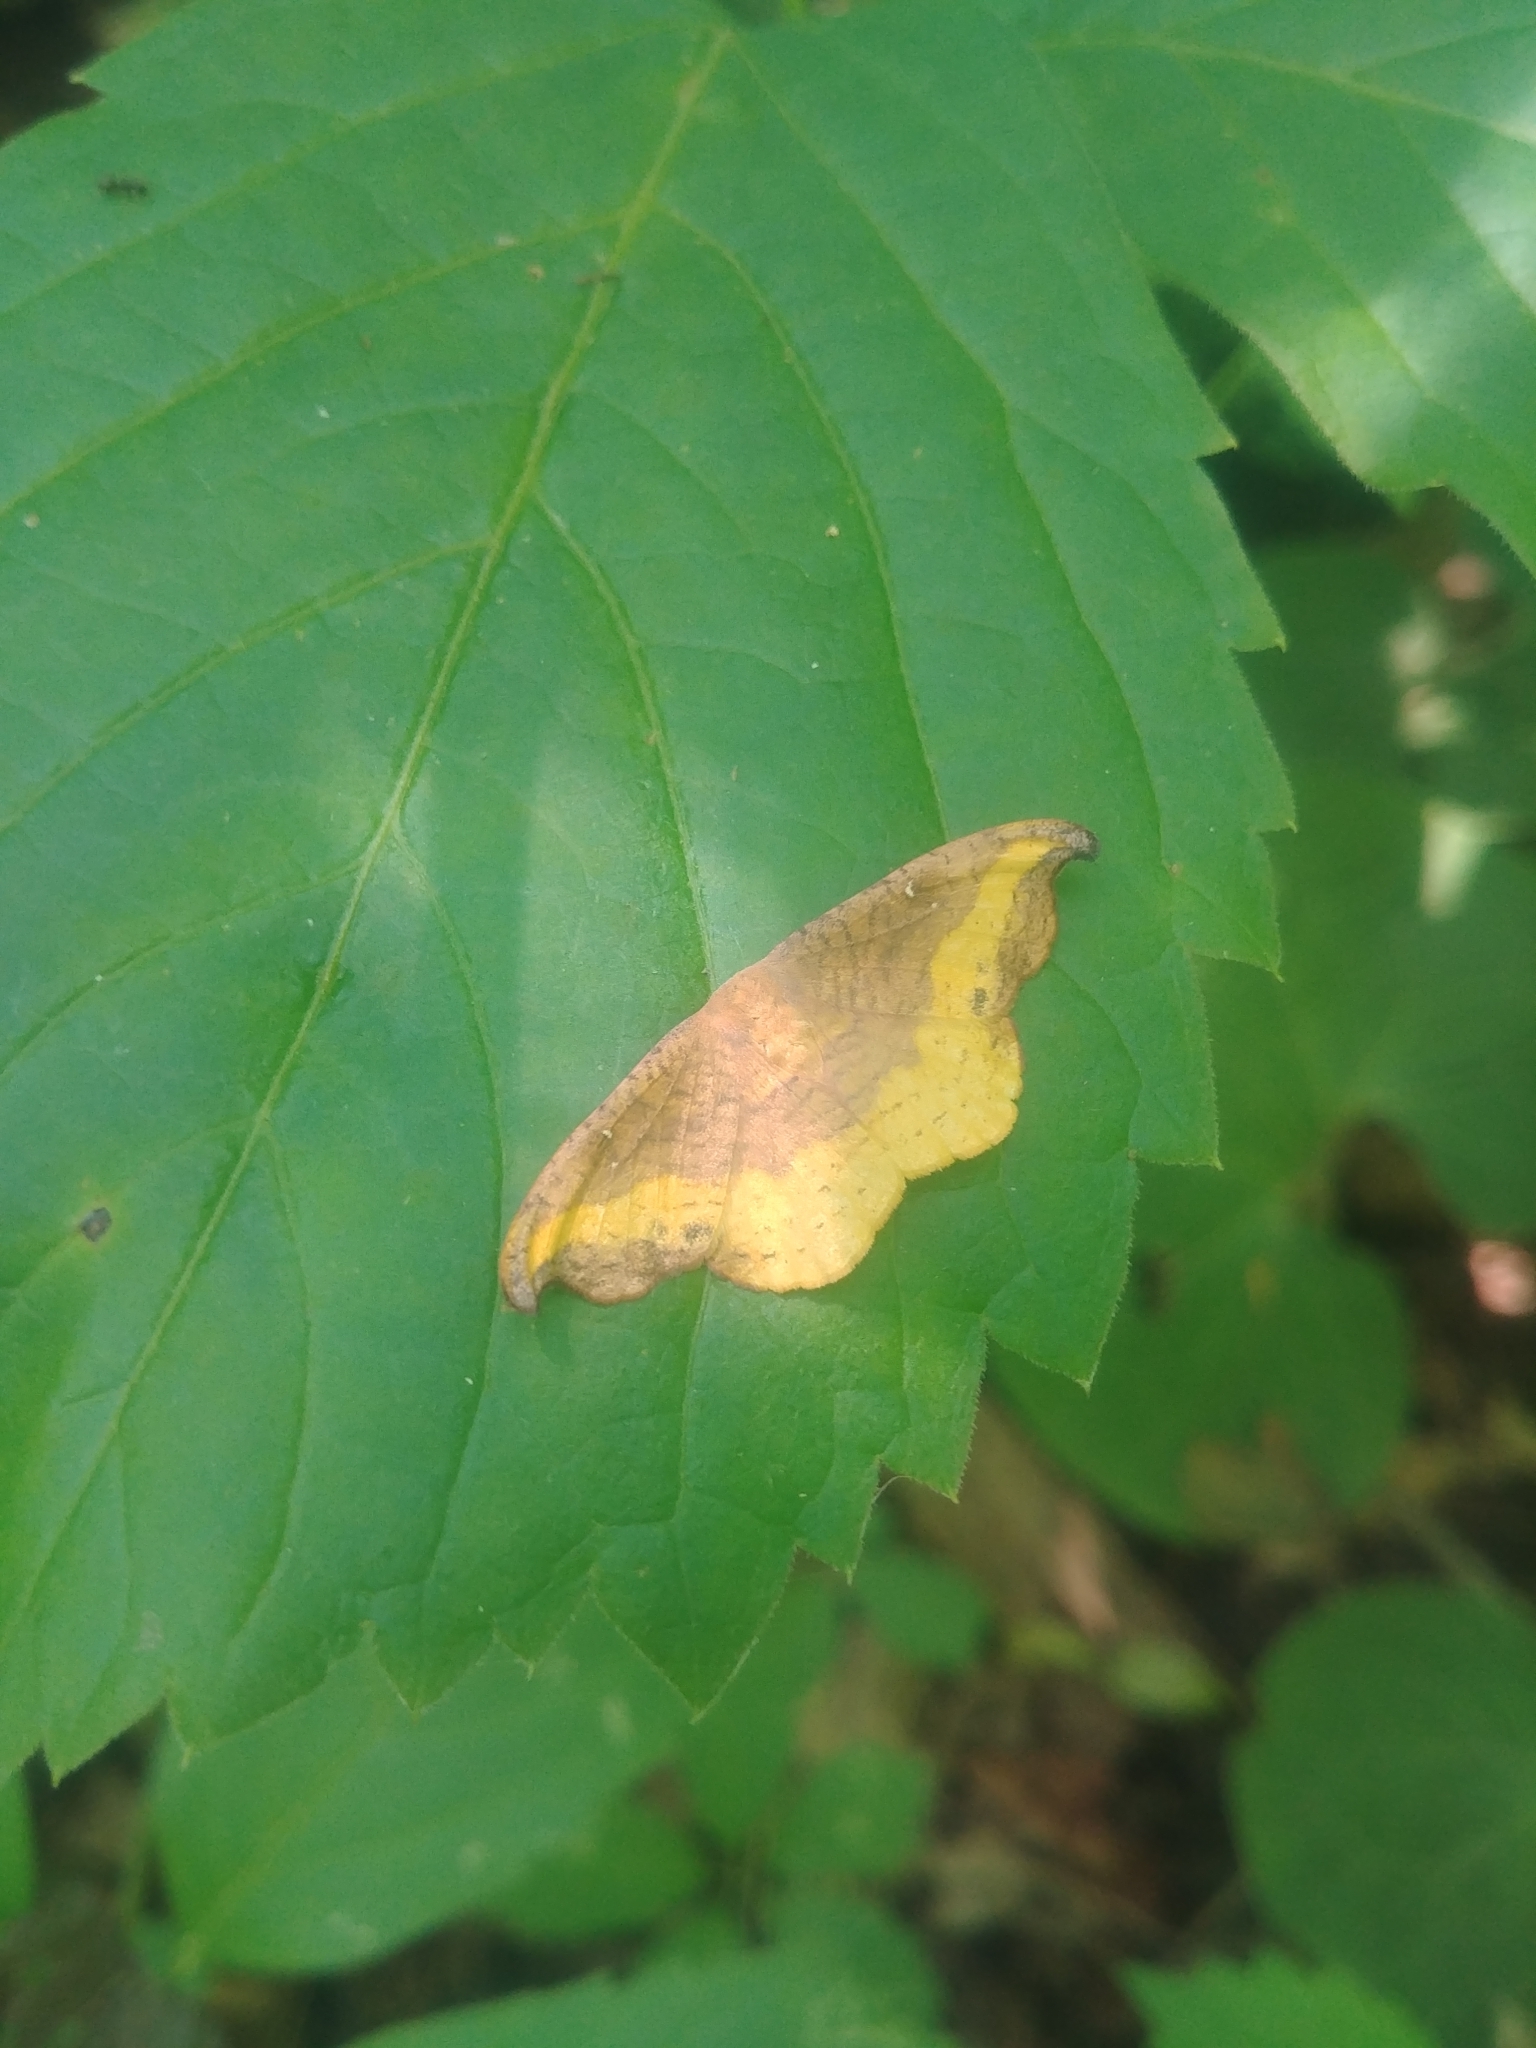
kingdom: Animalia
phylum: Arthropoda
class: Insecta
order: Lepidoptera
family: Drepanidae
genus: Oreta
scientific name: Oreta rosea
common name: Rose hooktip
